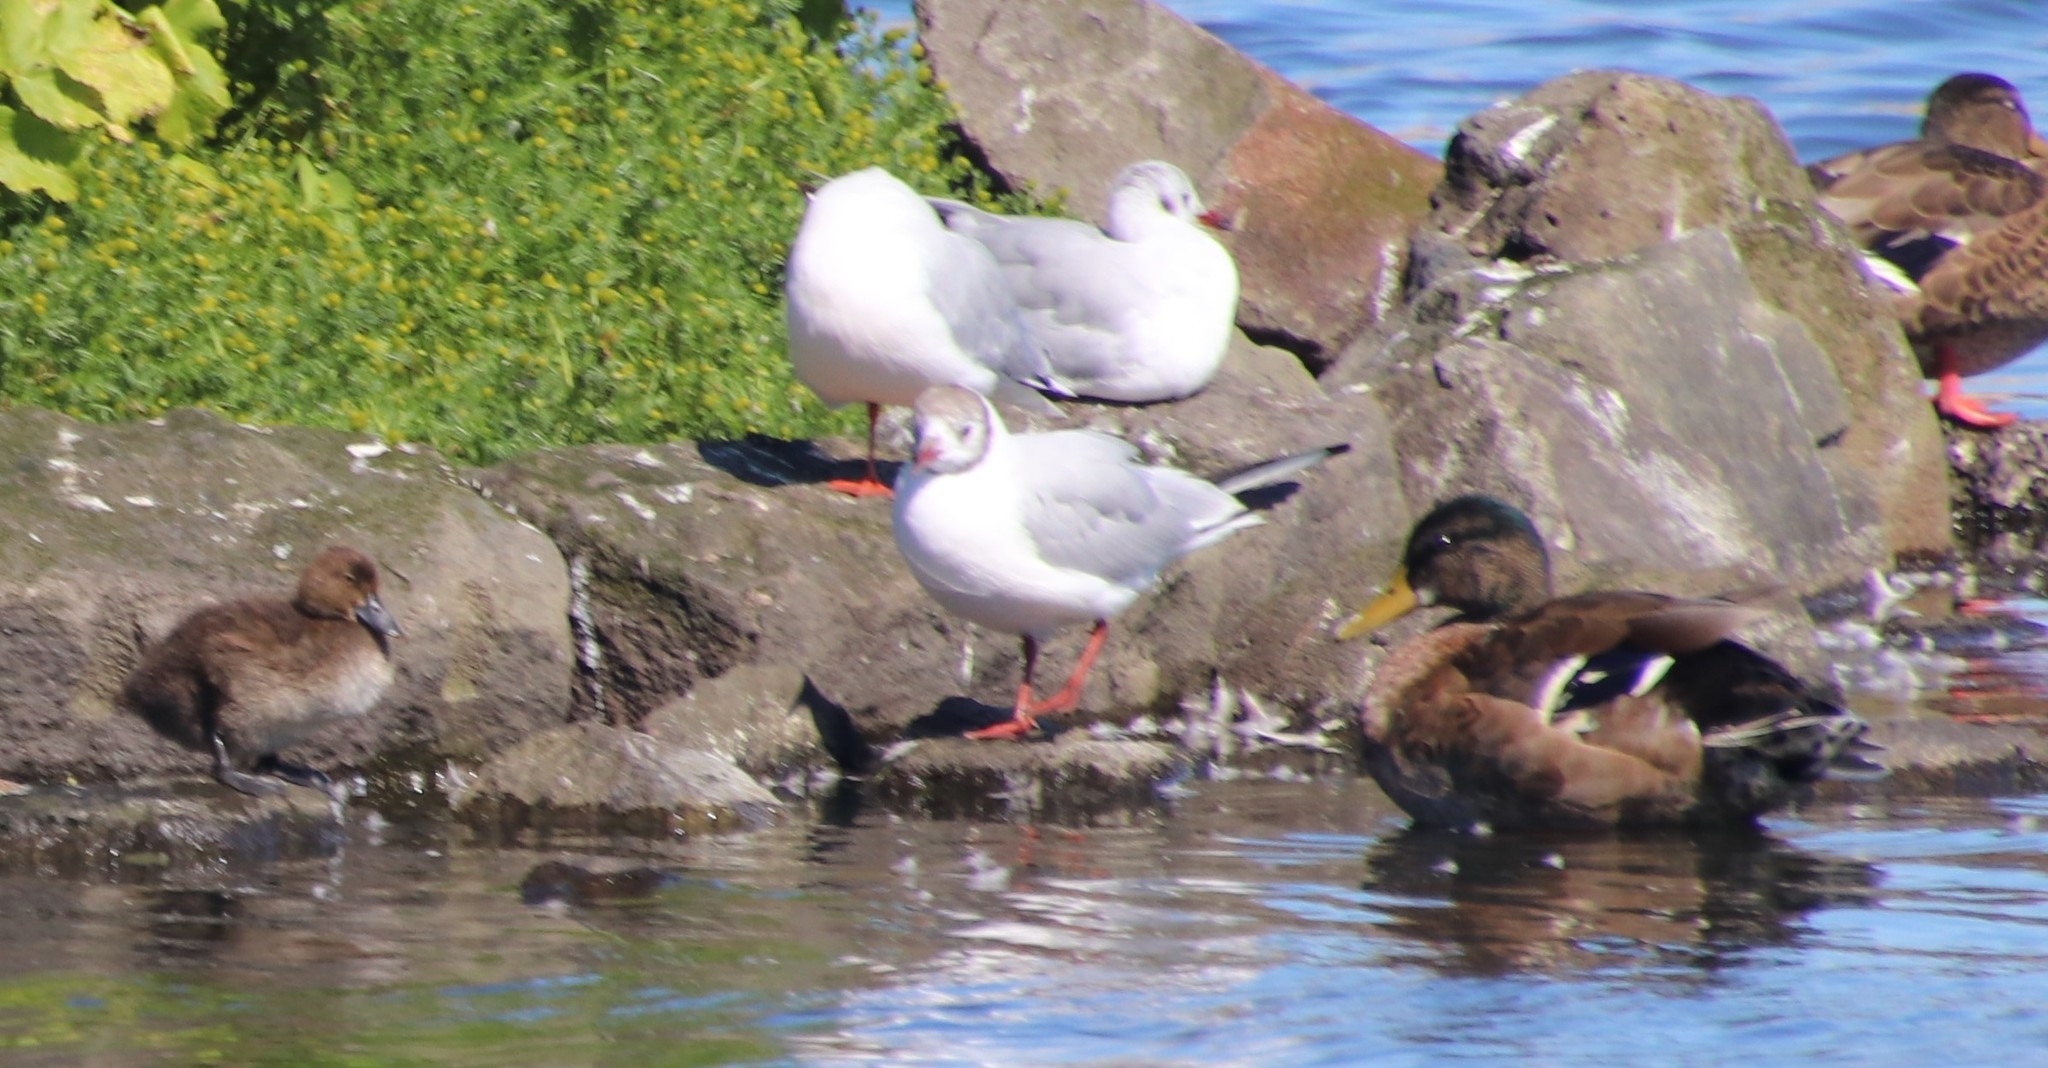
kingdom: Animalia
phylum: Chordata
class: Aves
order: Charadriiformes
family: Laridae
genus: Chroicocephalus
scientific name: Chroicocephalus ridibundus
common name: Black-headed gull
